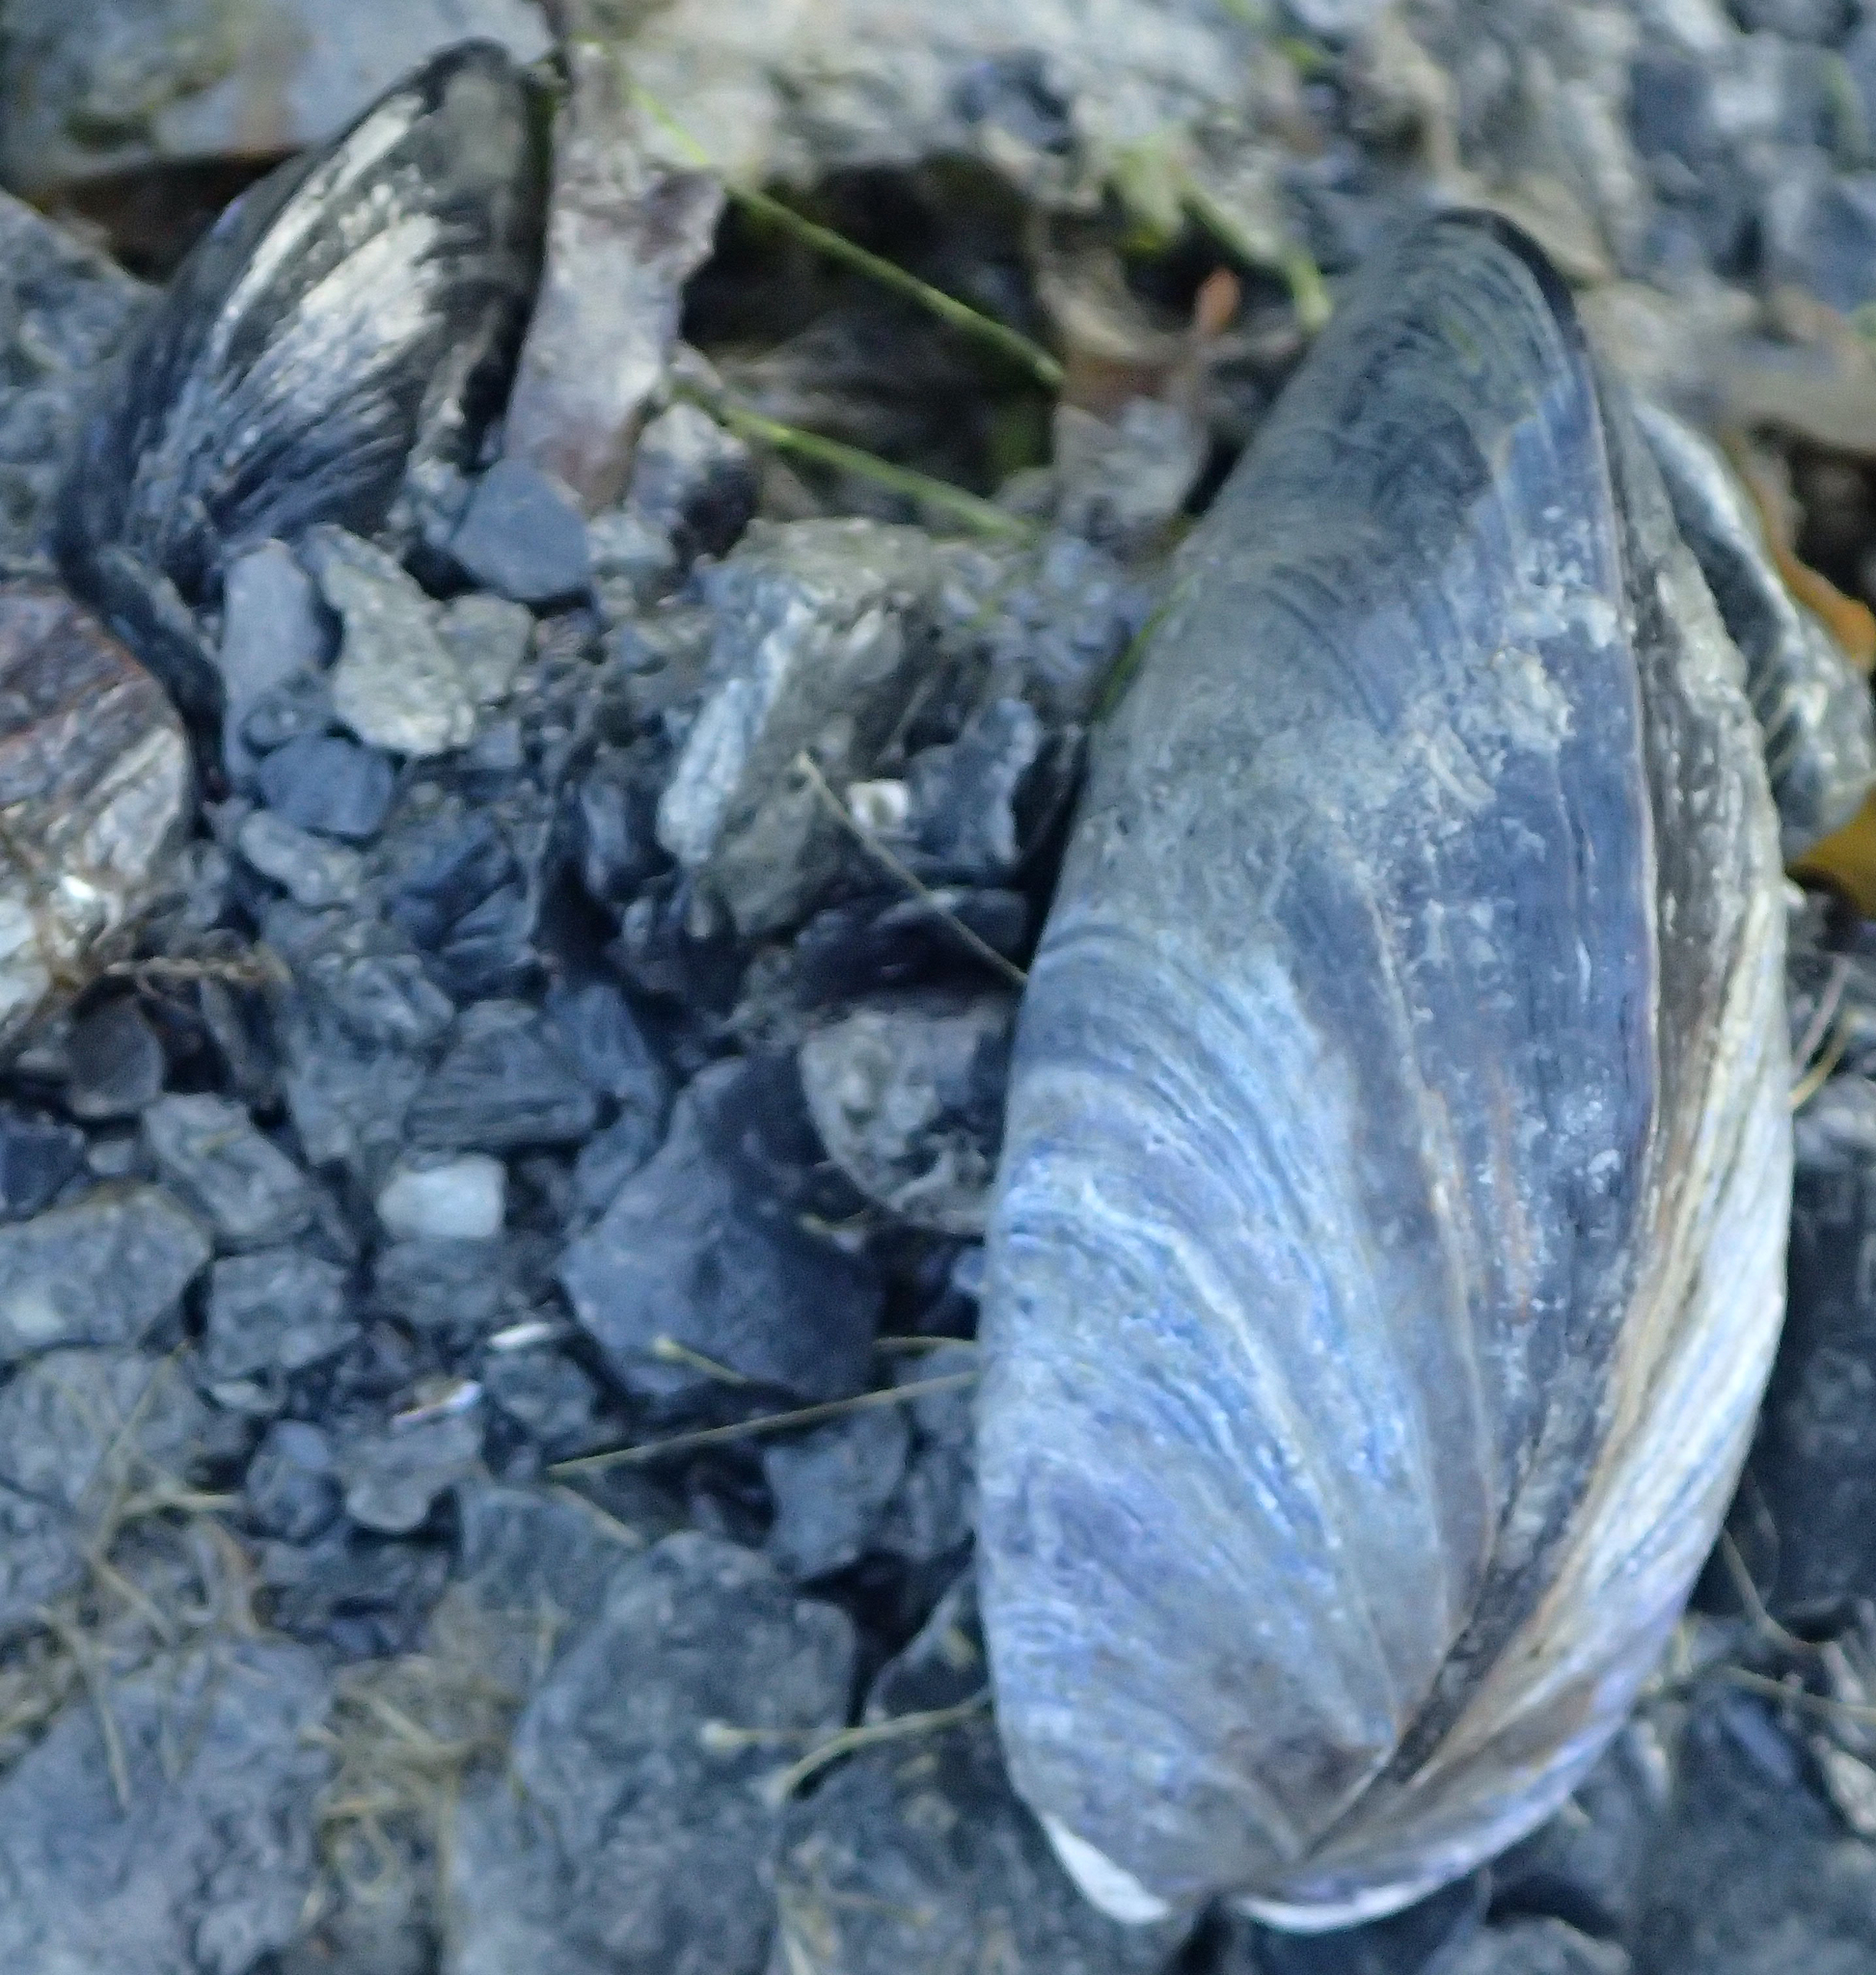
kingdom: Animalia
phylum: Mollusca
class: Bivalvia
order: Mytilida
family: Mytilidae
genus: Mytilus
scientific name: Mytilus trossulus
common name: Northern blue mussel
